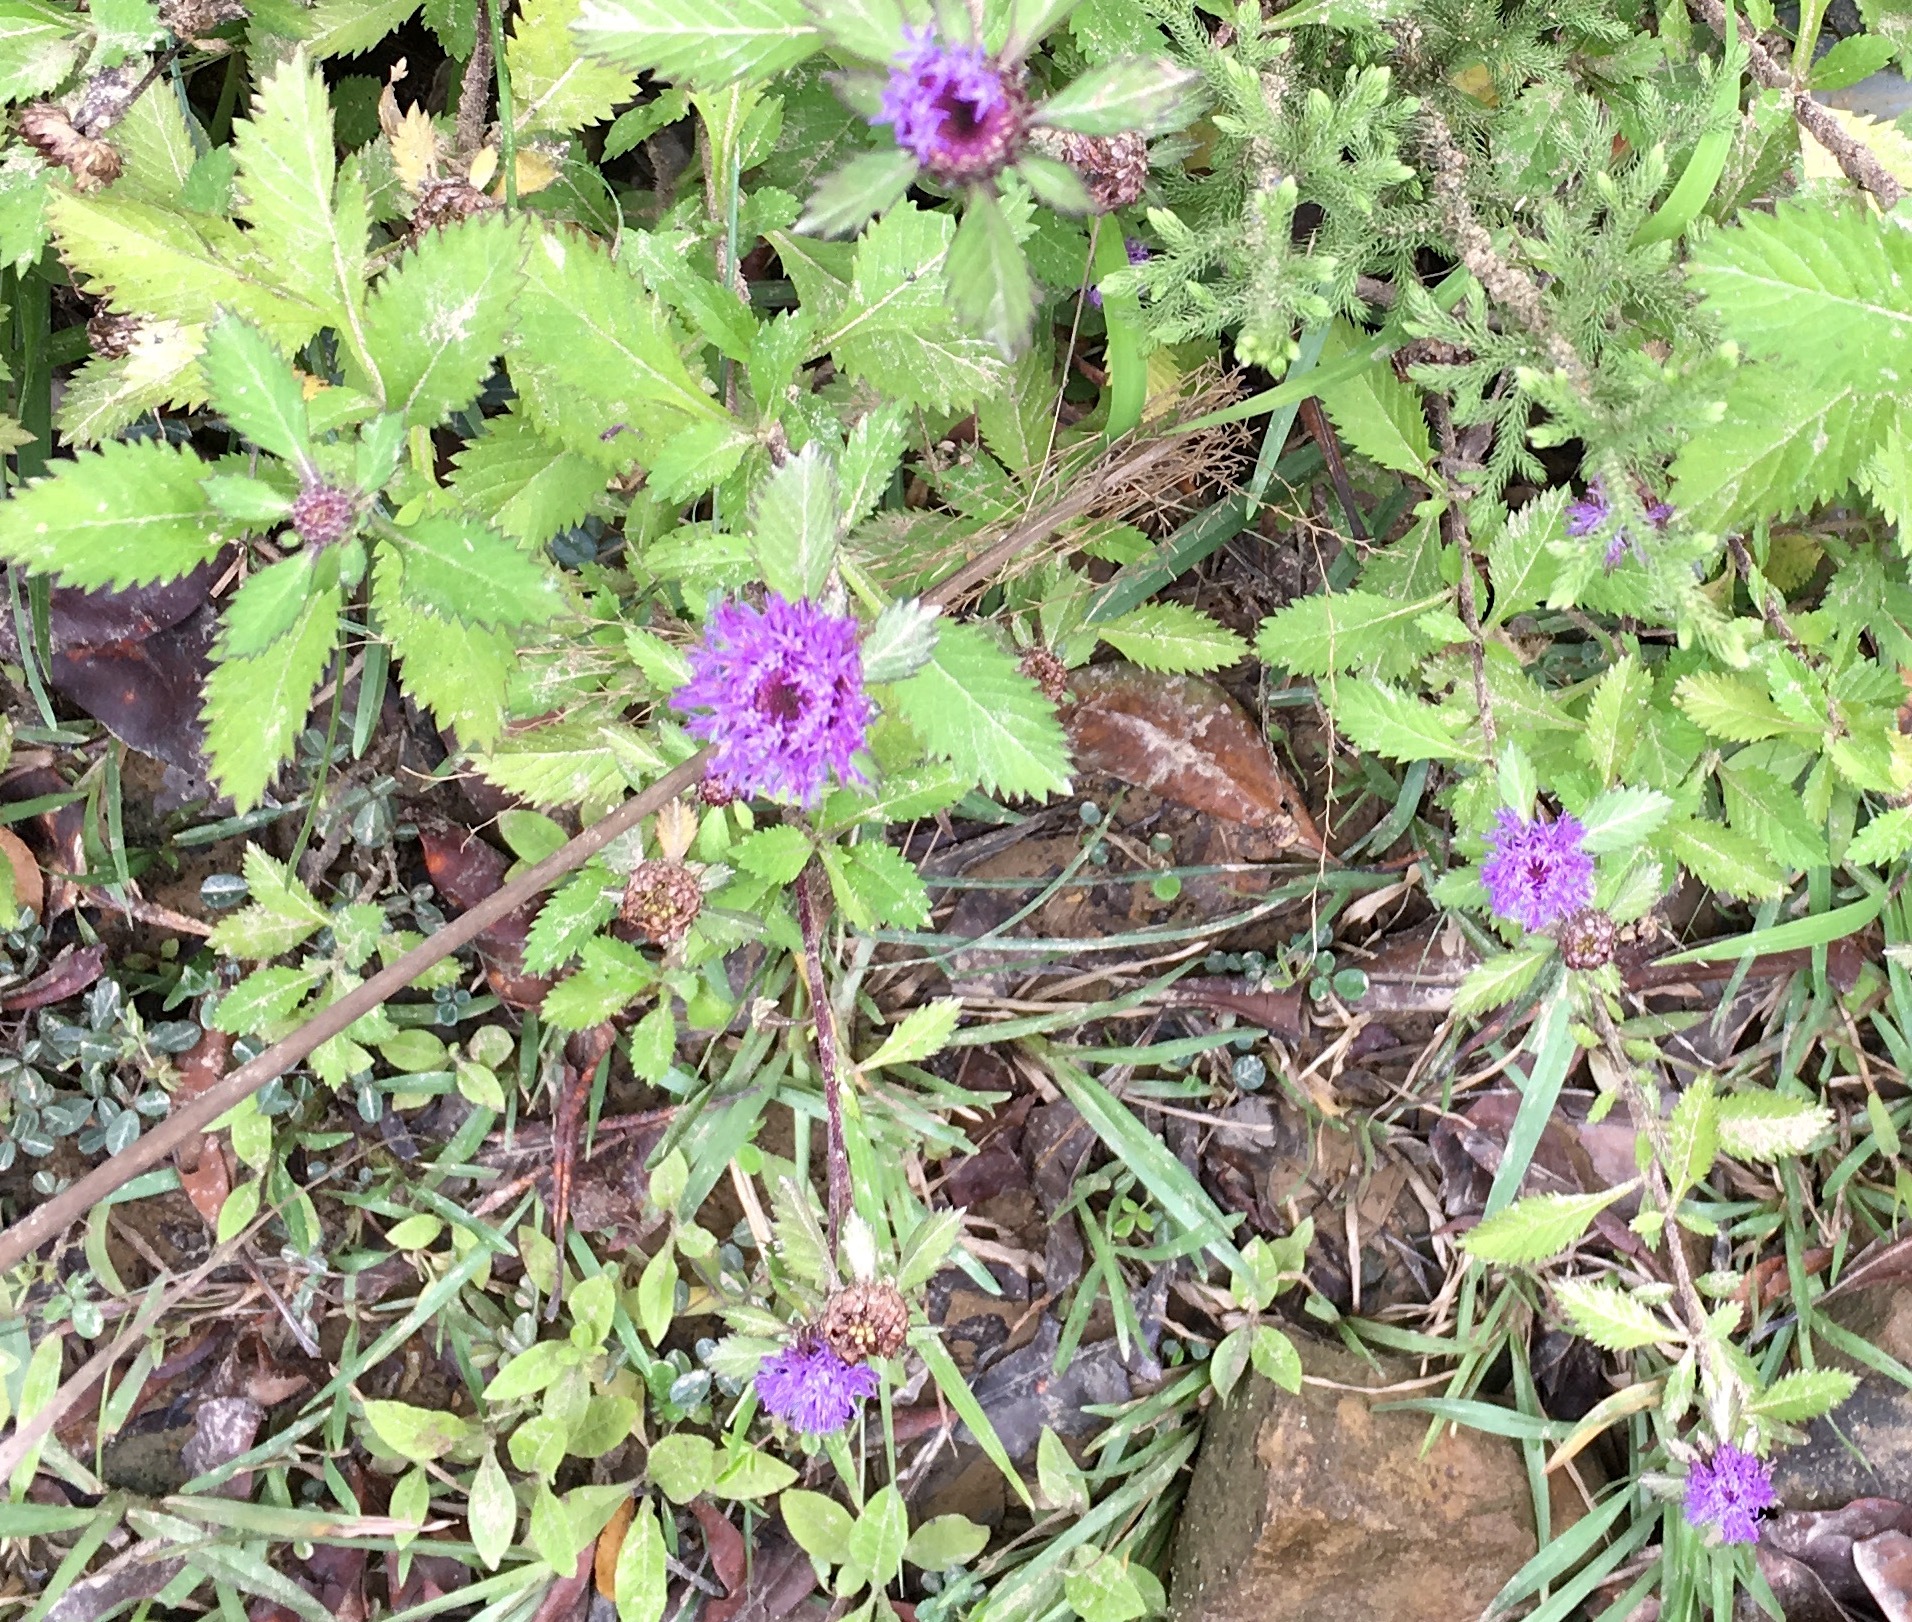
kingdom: Plantae
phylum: Tracheophyta
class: Magnoliopsida
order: Asterales
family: Asteraceae
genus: Centratherum
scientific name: Centratherum punctatum
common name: Larkdaisy
